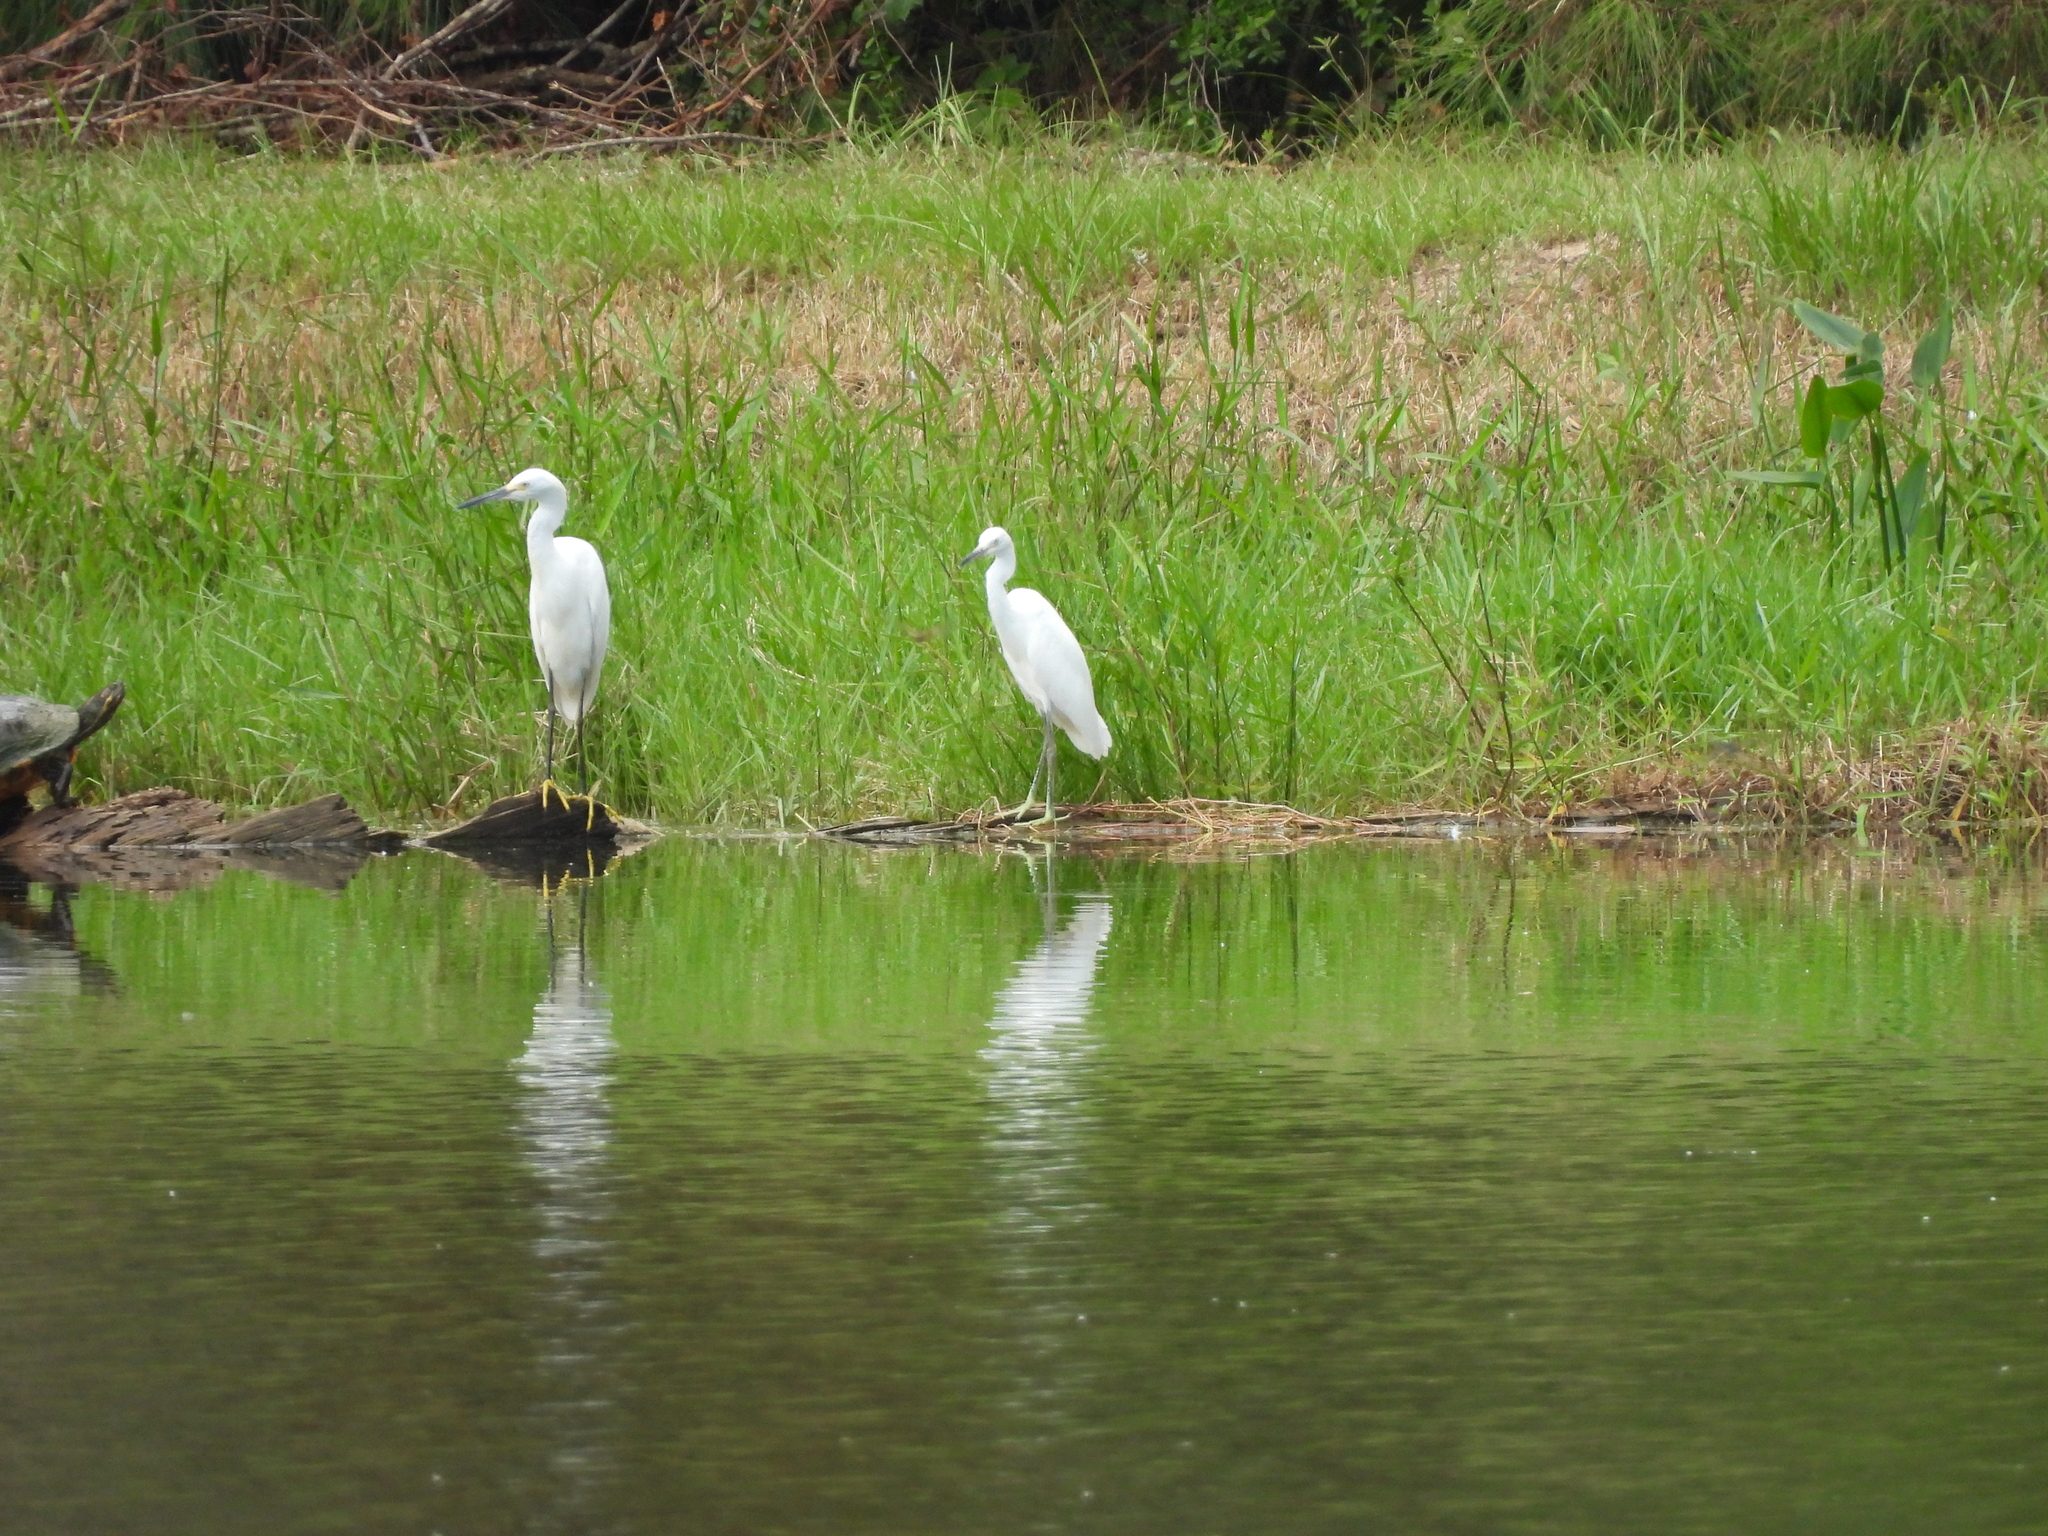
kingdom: Animalia
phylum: Chordata
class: Aves
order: Pelecaniformes
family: Ardeidae
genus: Egretta
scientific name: Egretta thula
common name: Snowy egret
